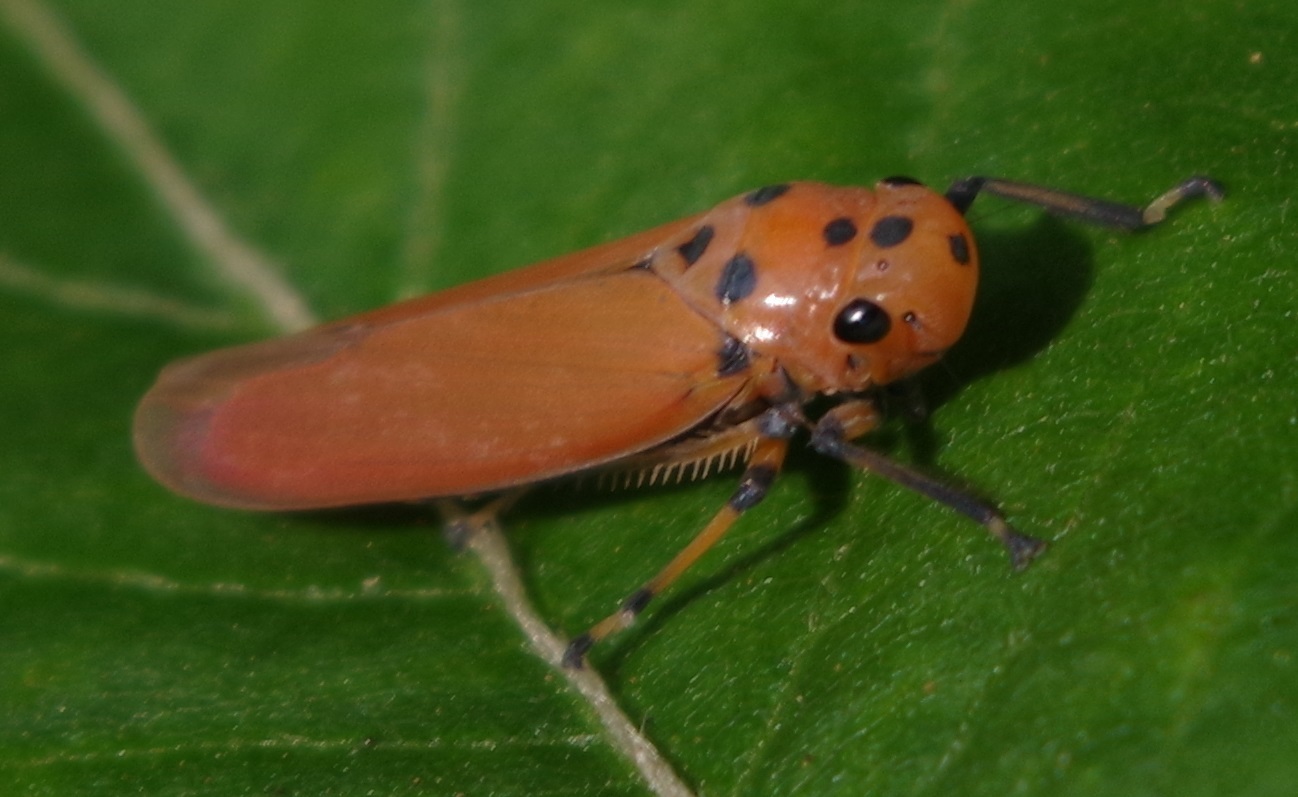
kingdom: Animalia
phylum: Arthropoda
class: Insecta
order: Hemiptera
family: Cicadellidae
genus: Bothrogonia
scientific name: Bothrogonia addita
